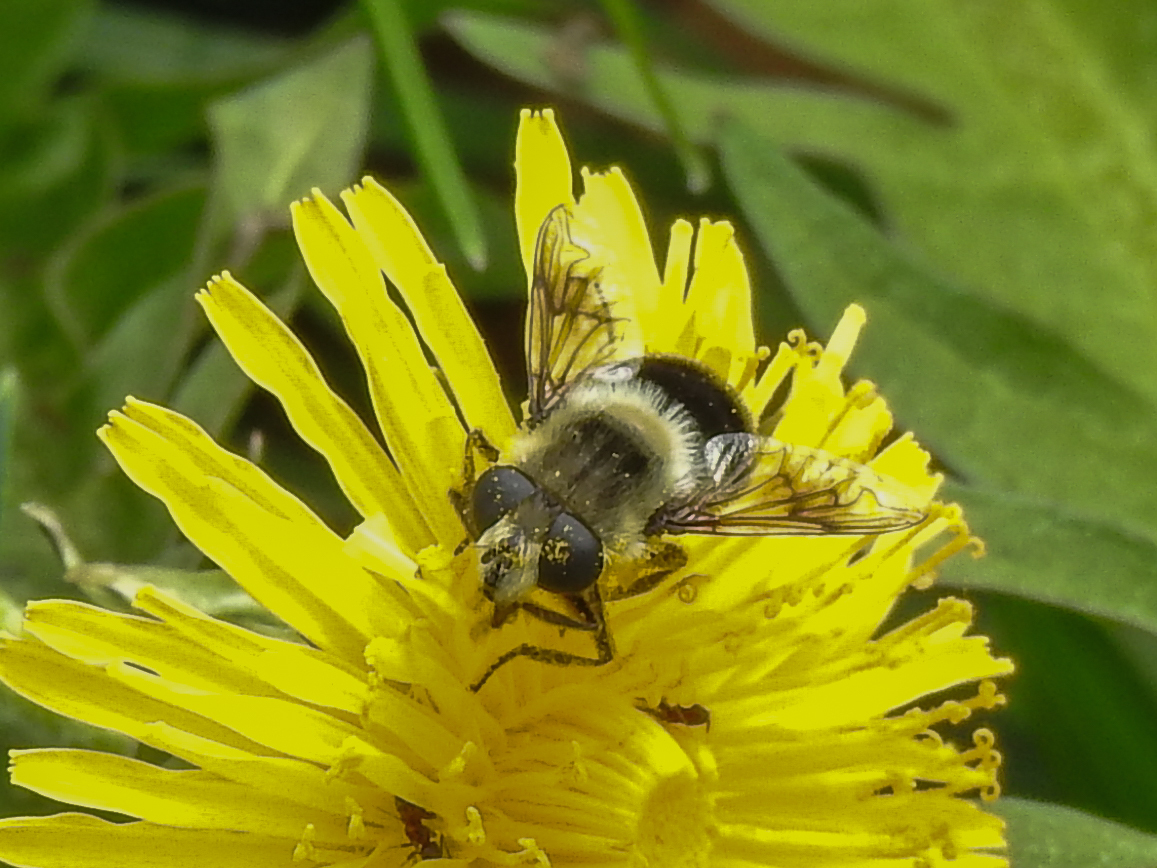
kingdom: Animalia
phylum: Arthropoda
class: Insecta
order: Diptera
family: Syrphidae
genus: Eristalis
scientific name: Eristalis anthophorina
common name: Orange-spotted drone fly
